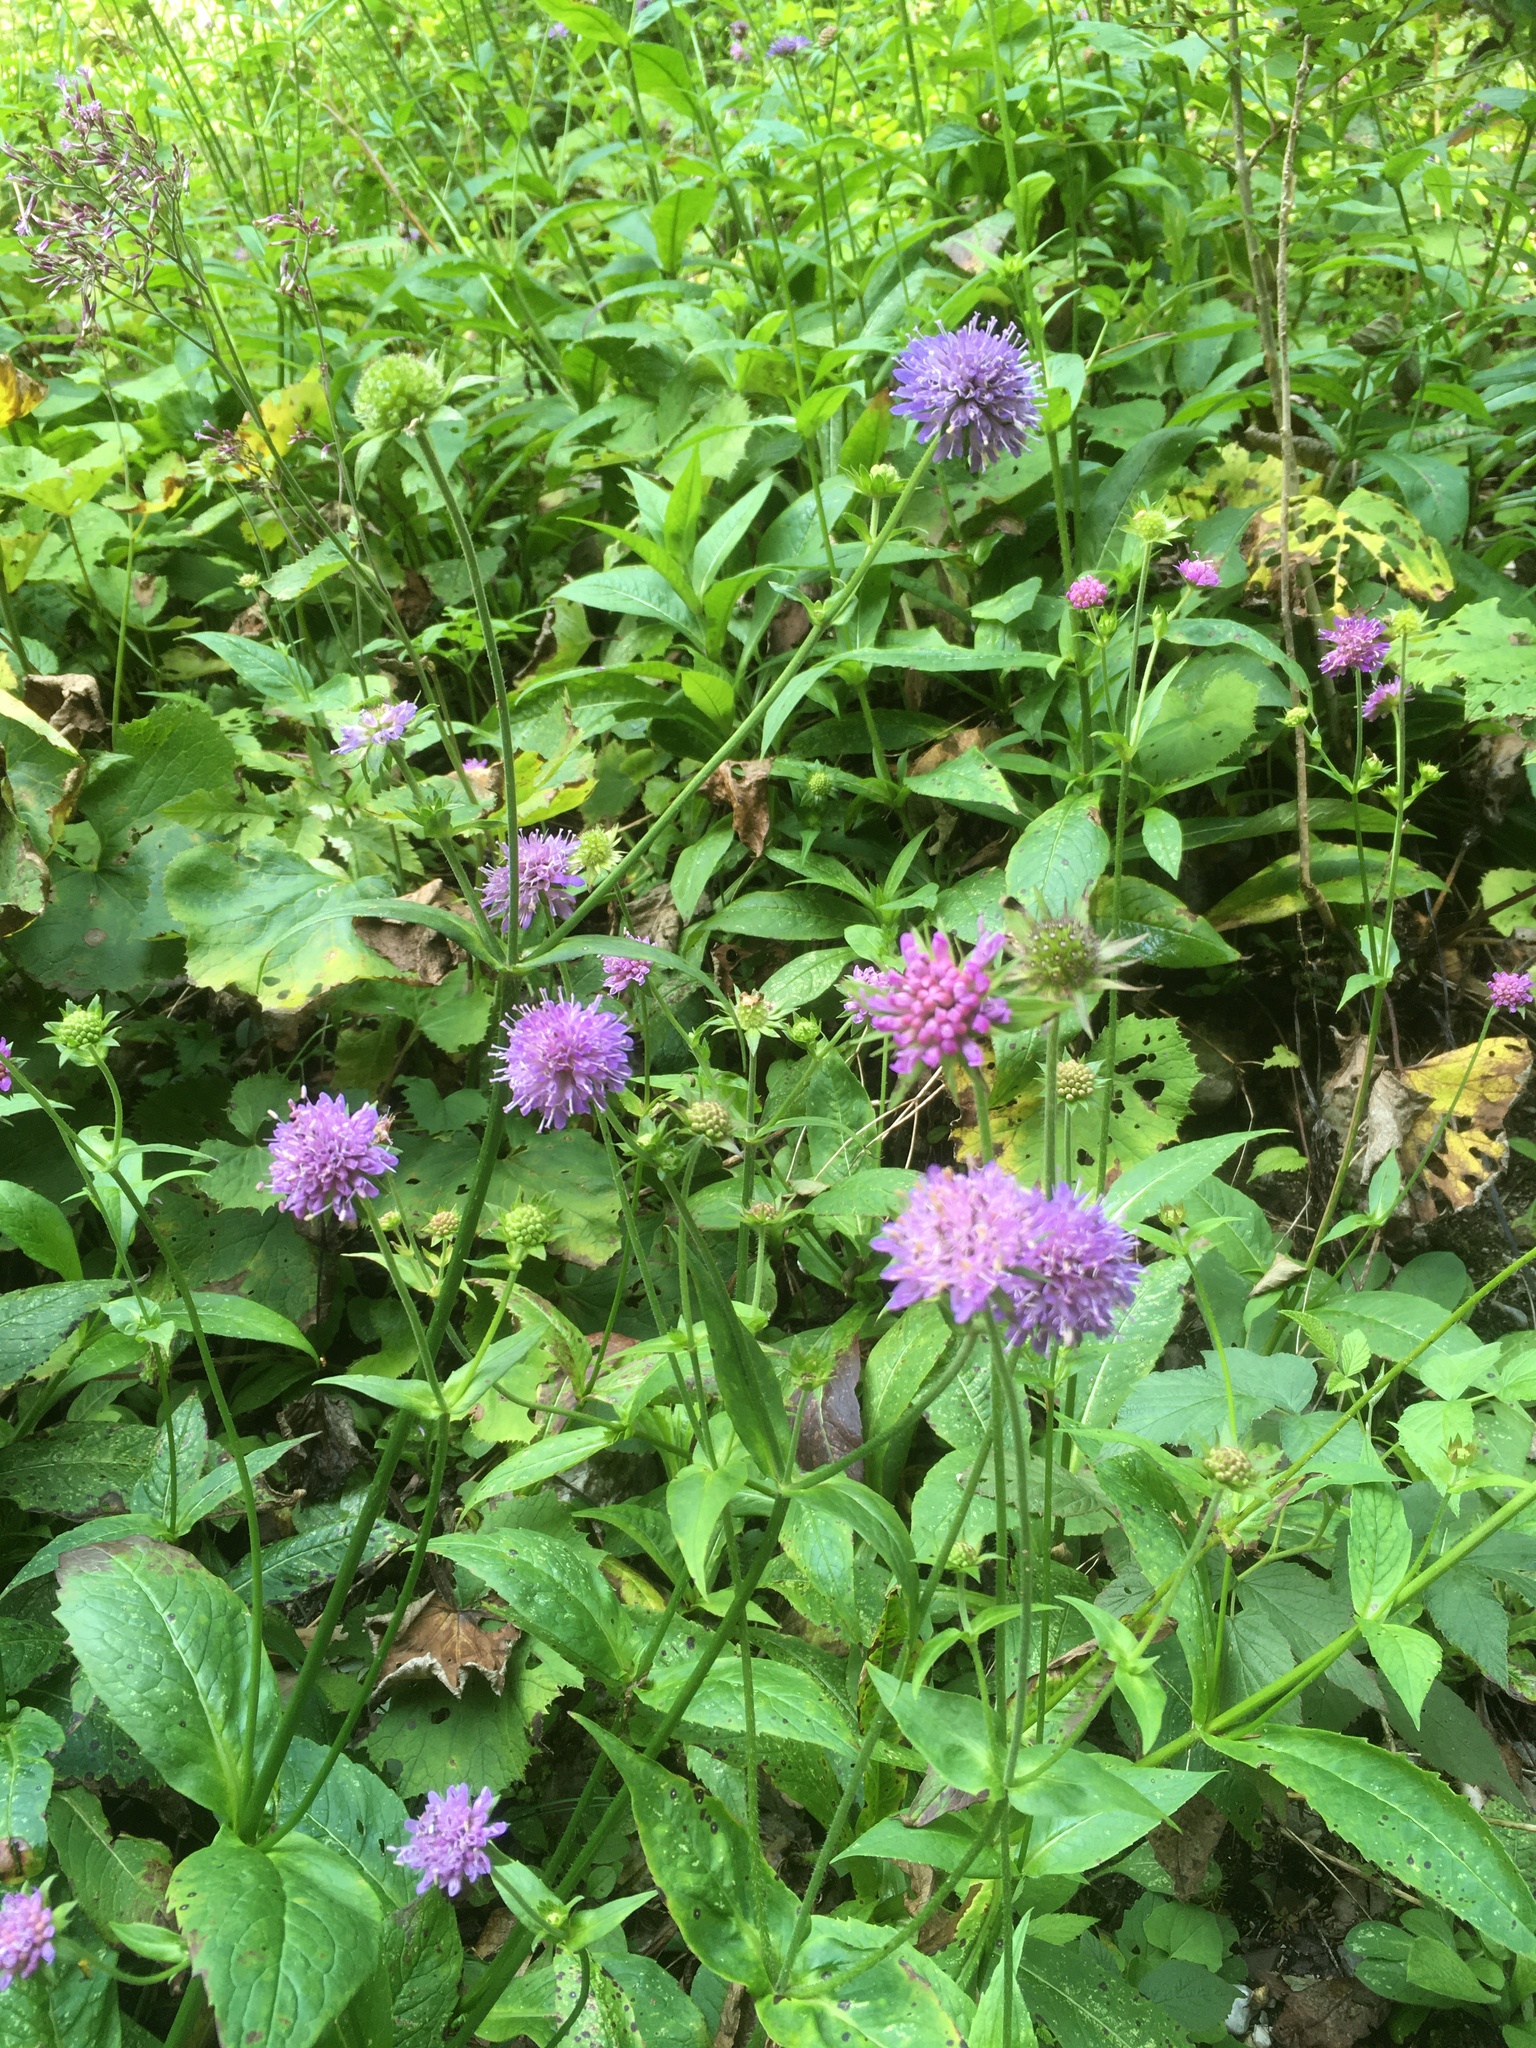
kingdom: Plantae
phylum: Tracheophyta
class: Magnoliopsida
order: Dipsacales
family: Caprifoliaceae
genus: Knautia
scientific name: Knautia dipsacifolia
